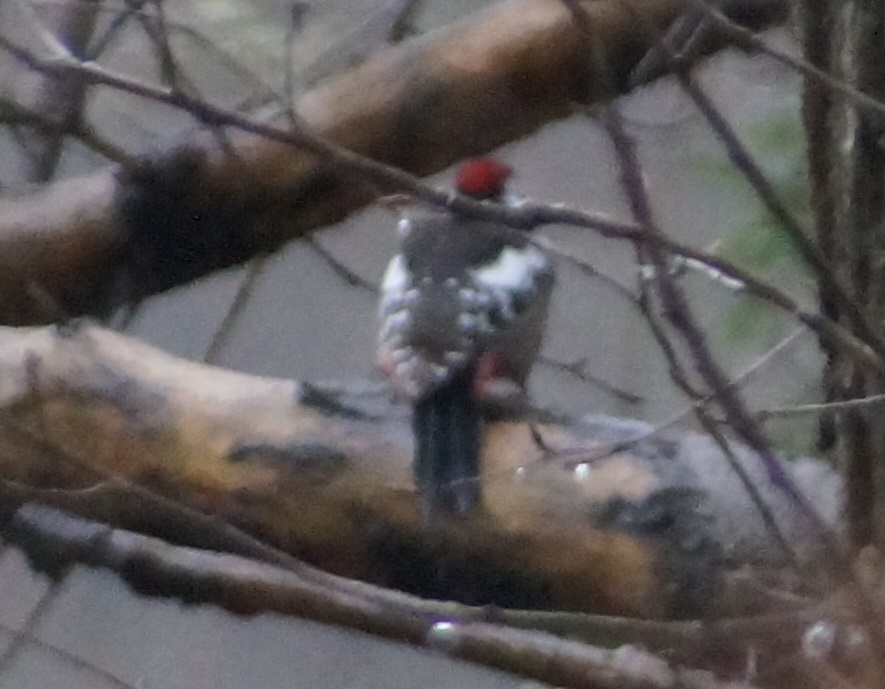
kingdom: Animalia
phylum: Chordata
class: Aves
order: Piciformes
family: Picidae
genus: Dendrocoptes
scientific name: Dendrocoptes medius
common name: Middle spotted woodpecker
